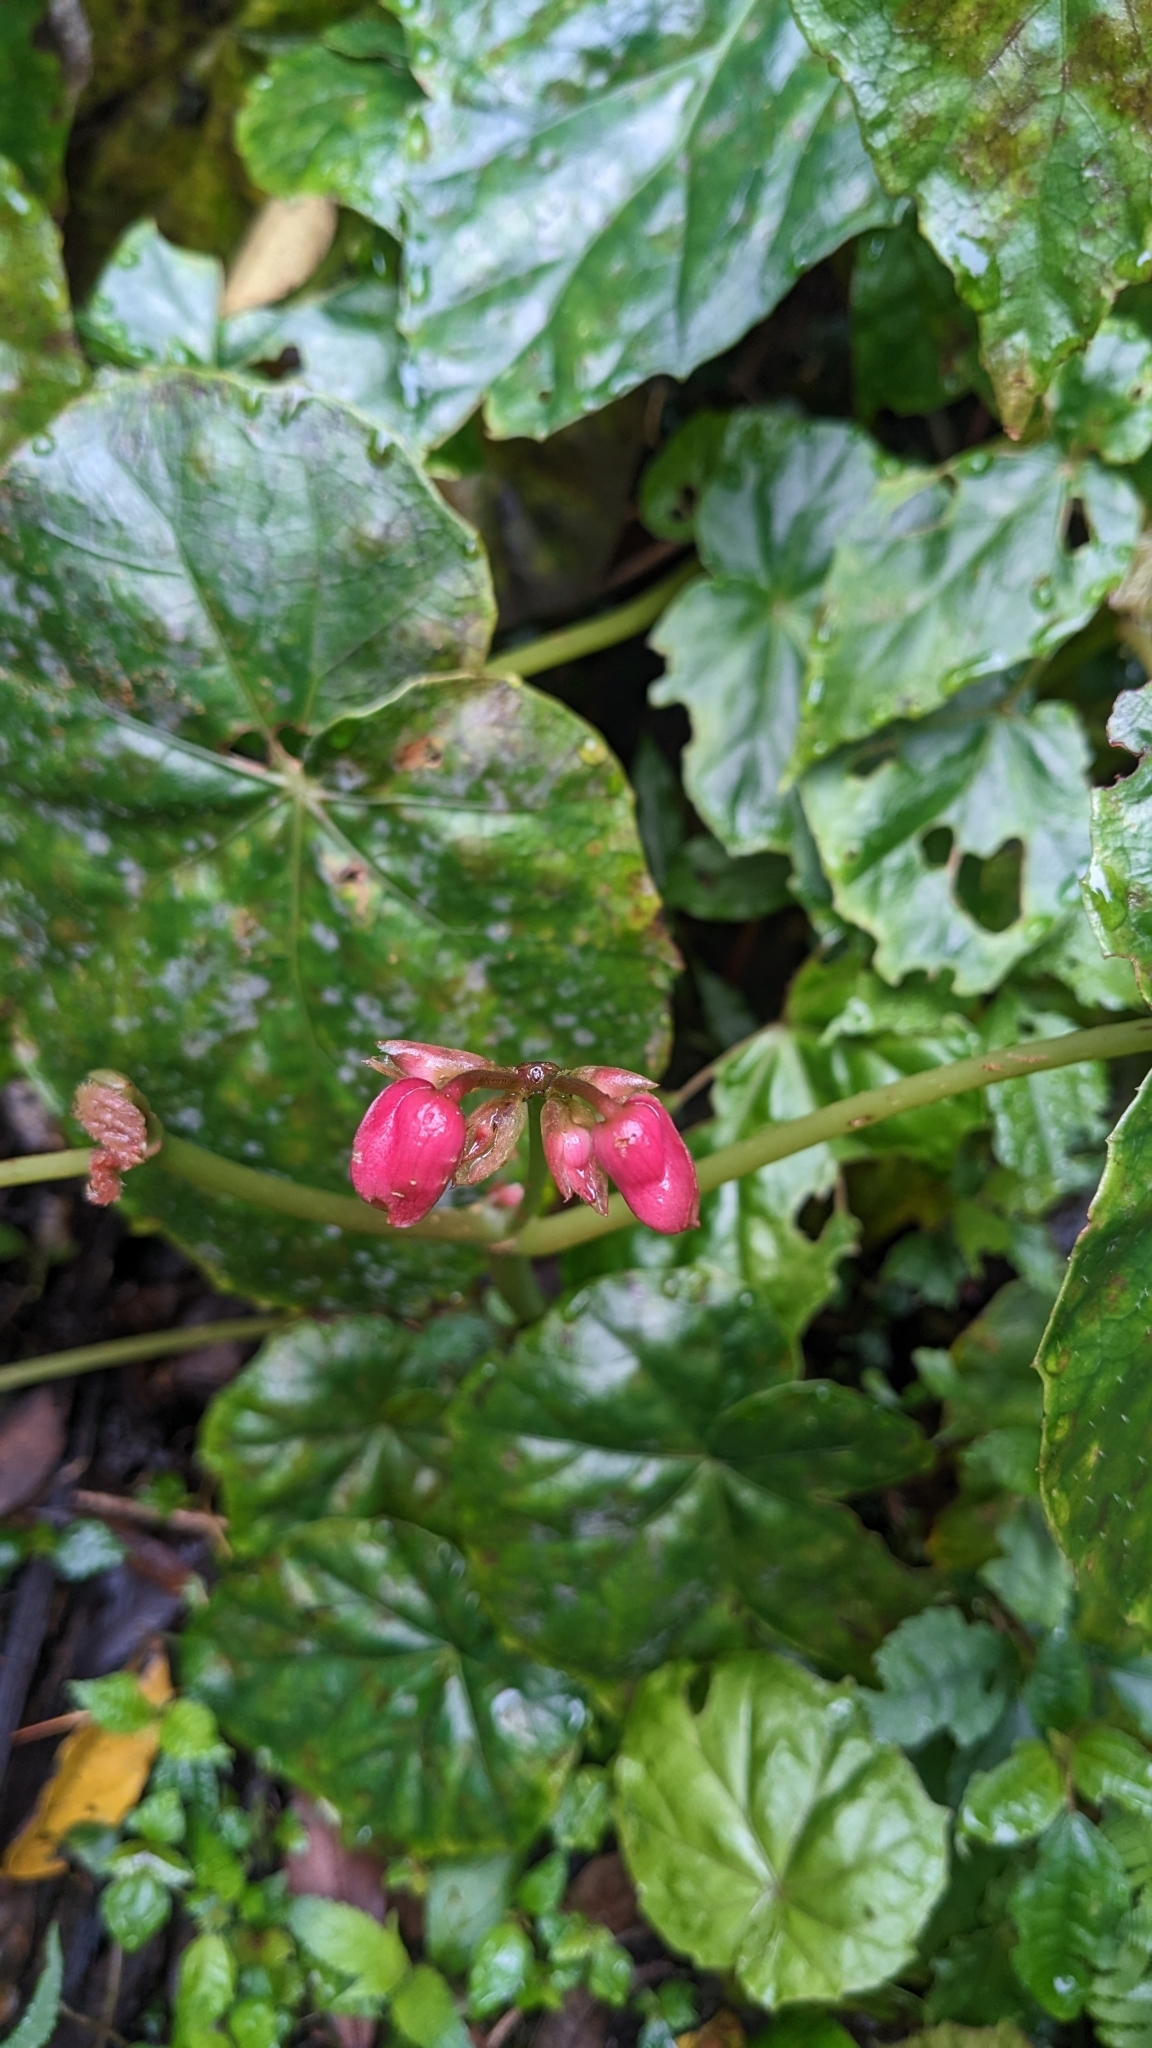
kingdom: Plantae
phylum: Tracheophyta
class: Magnoliopsida
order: Cucurbitales
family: Begoniaceae
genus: Begonia
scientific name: Begonia formosana
